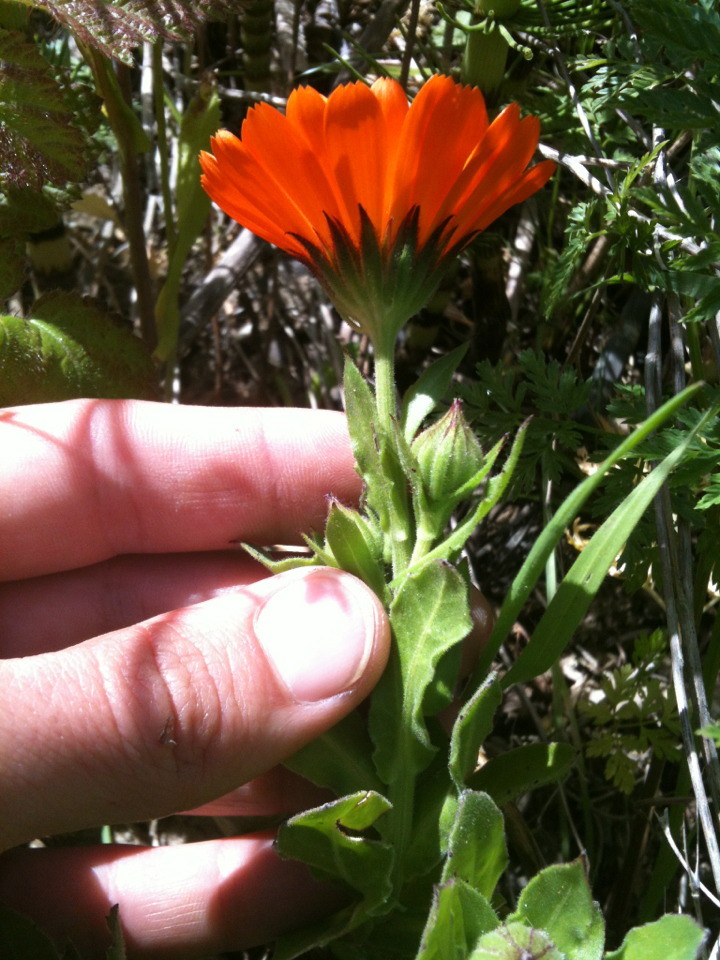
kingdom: Plantae
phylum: Tracheophyta
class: Magnoliopsida
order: Asterales
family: Asteraceae
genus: Calendula
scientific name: Calendula officinalis
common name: Pot marigold
